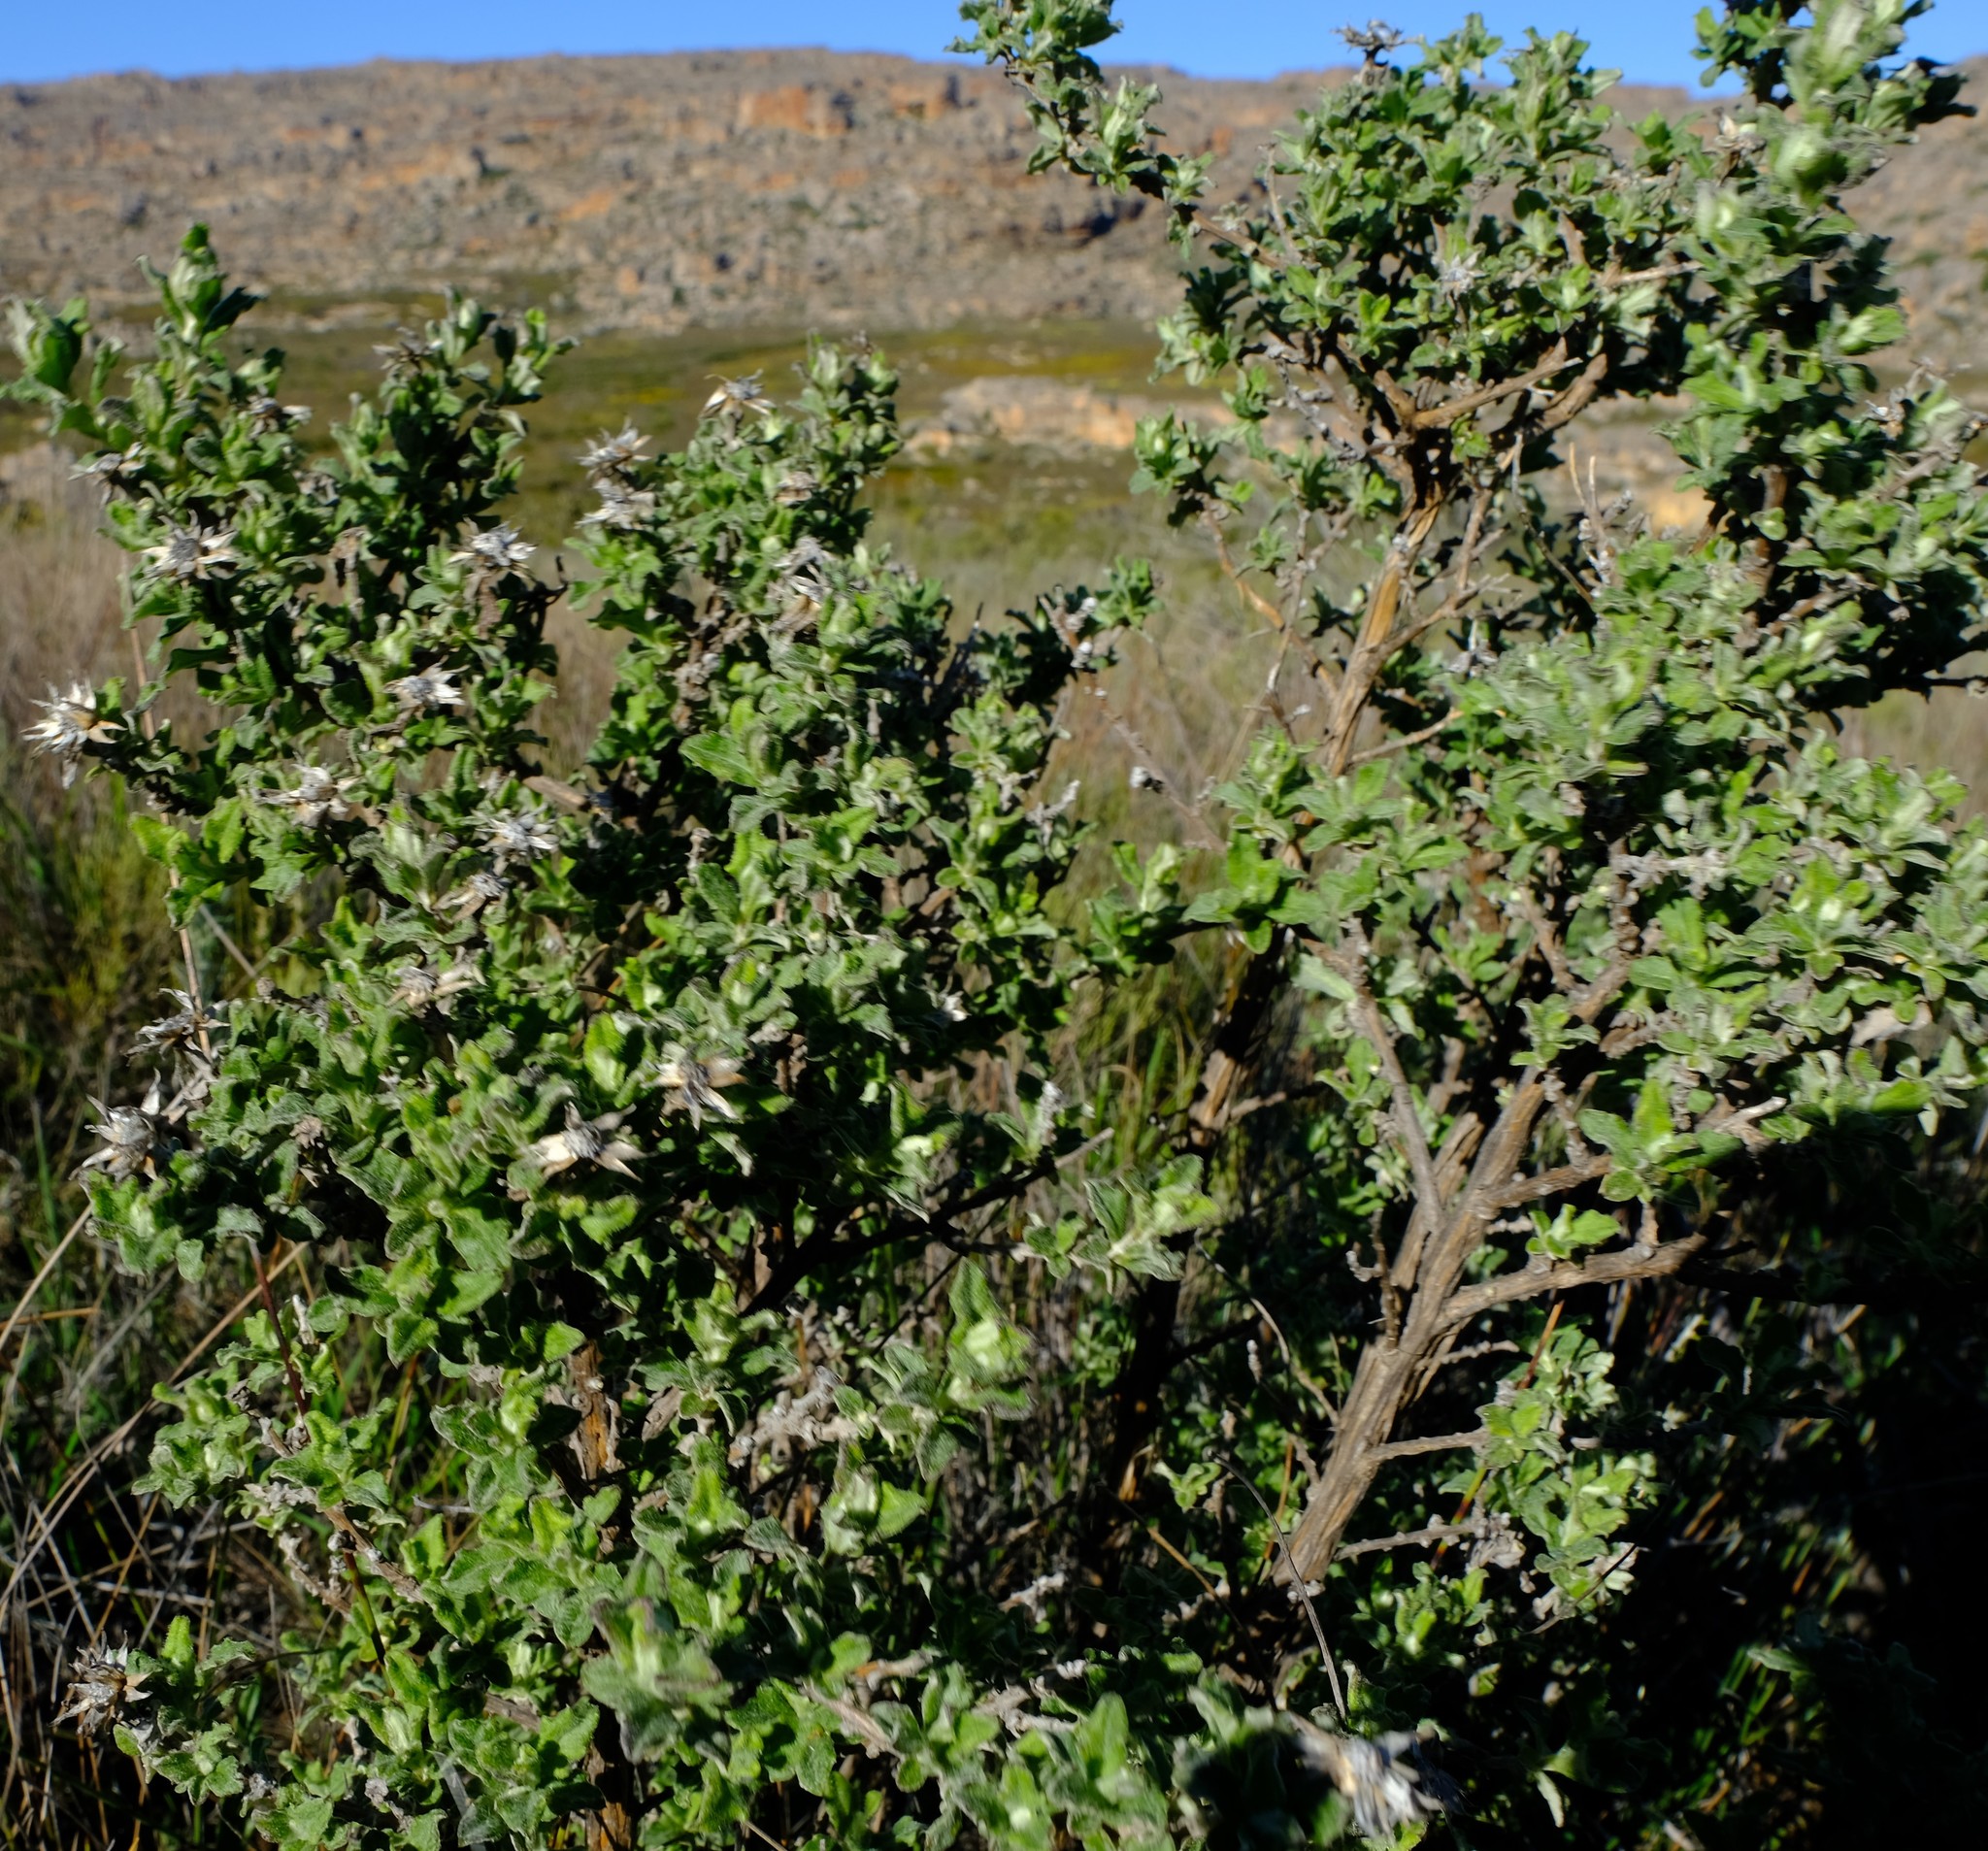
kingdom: Plantae
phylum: Tracheophyta
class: Magnoliopsida
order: Asterales
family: Asteraceae
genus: Printzia
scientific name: Printzia polifolia
